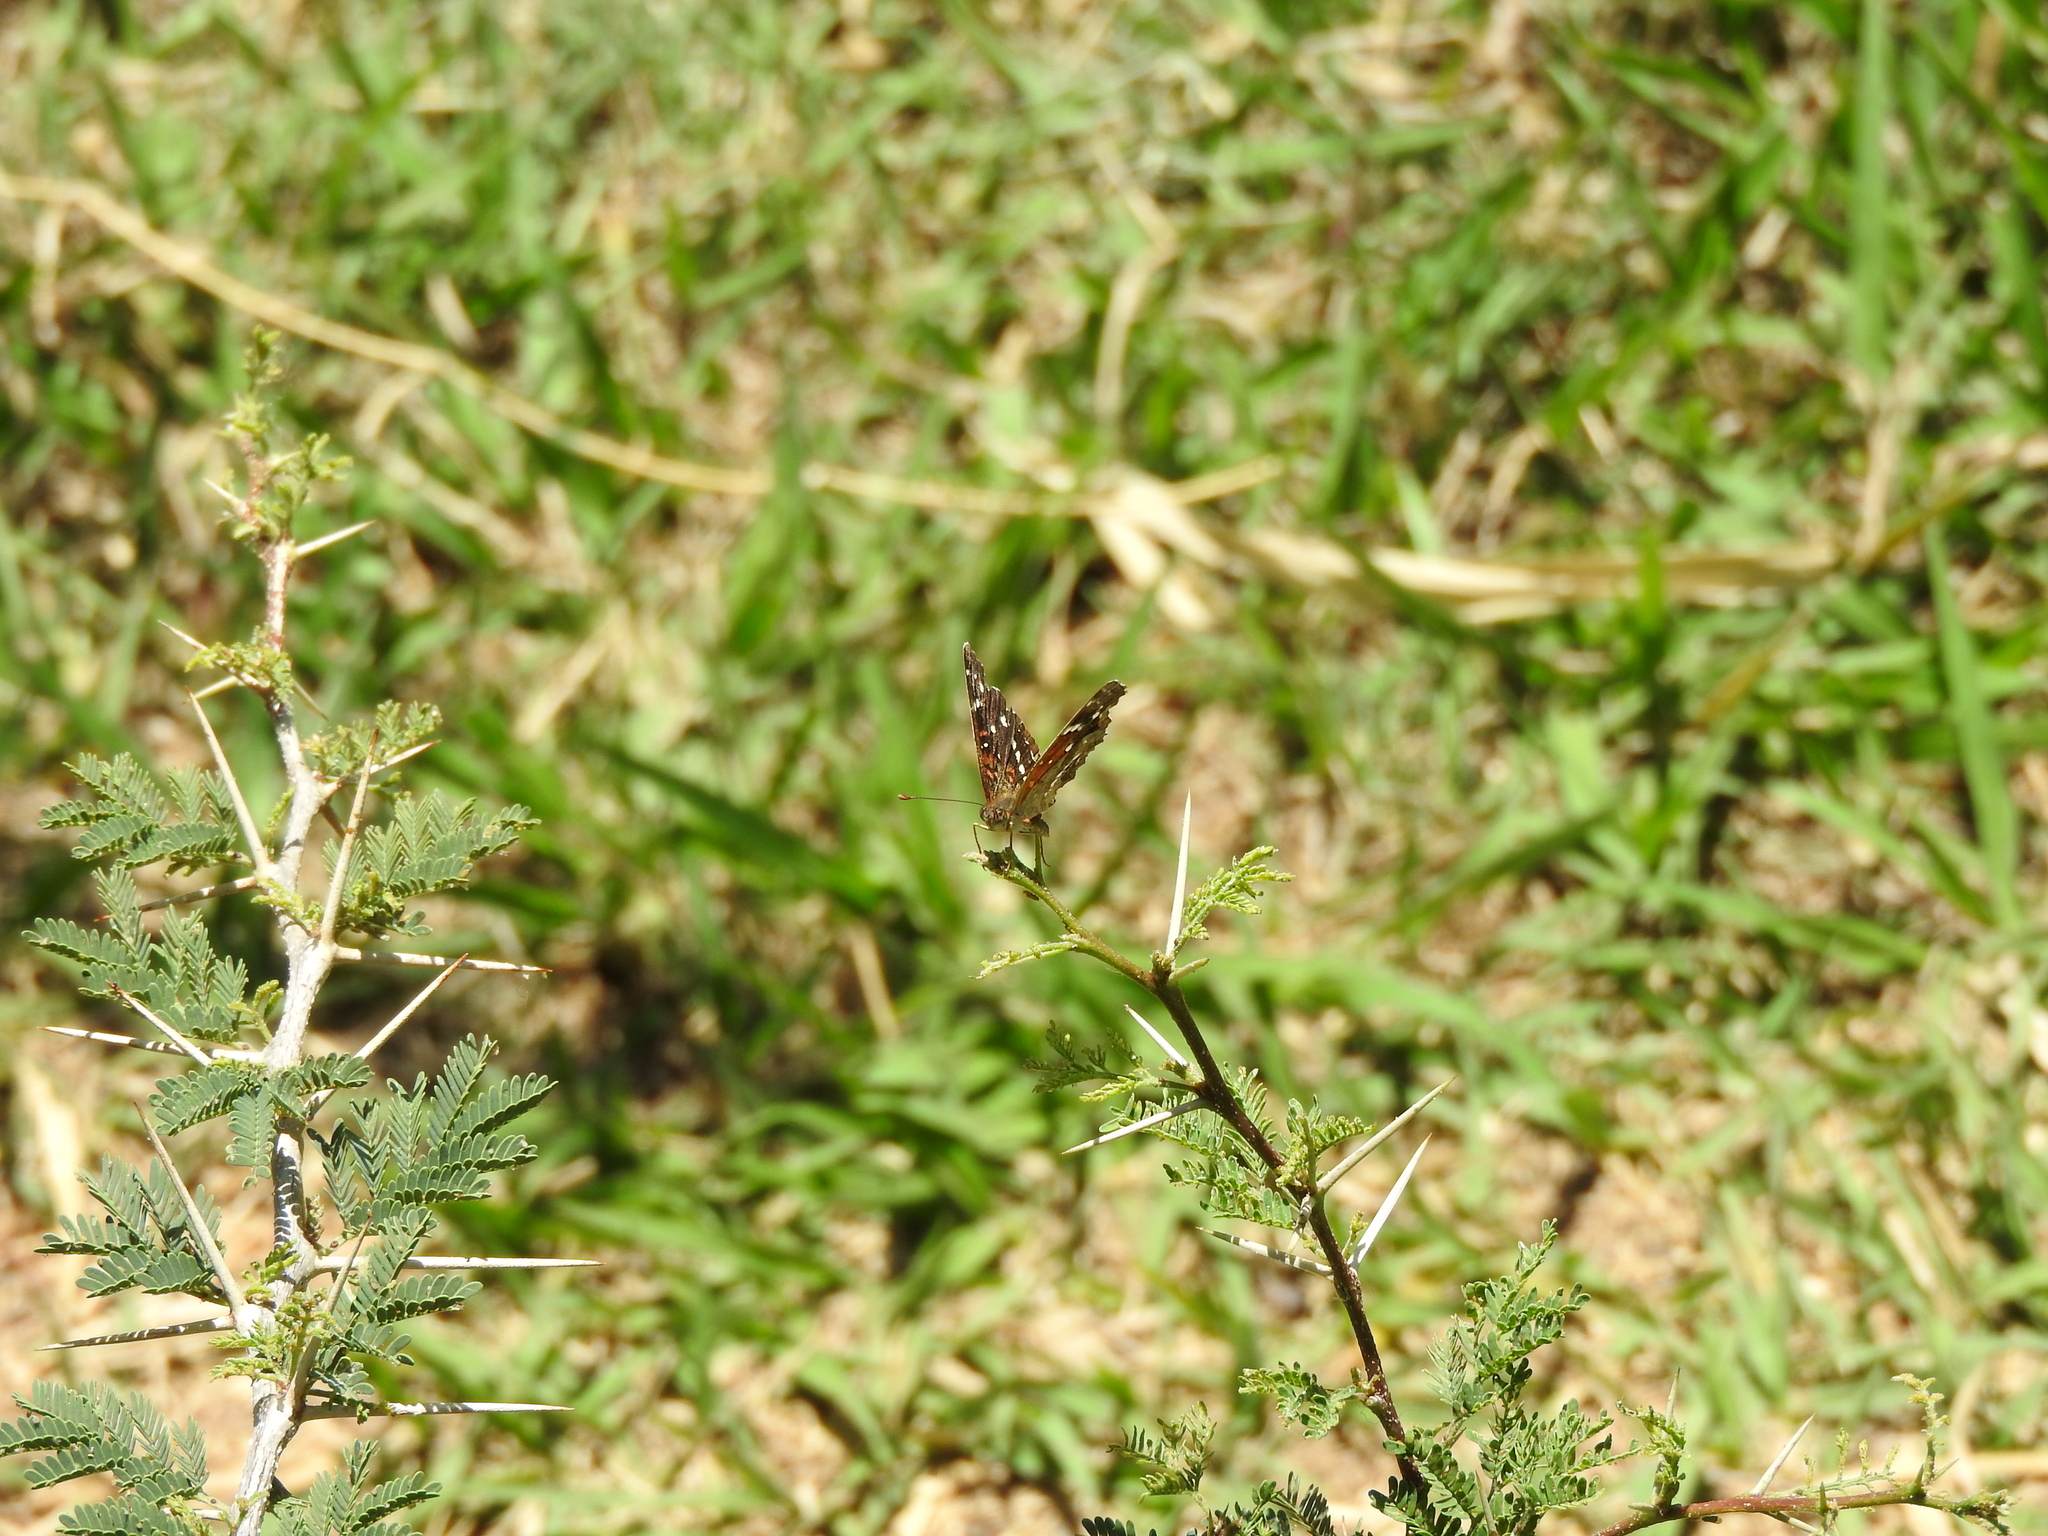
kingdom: Animalia
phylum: Arthropoda
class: Insecta
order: Lepidoptera
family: Nymphalidae
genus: Anthanassa
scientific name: Anthanassa texana
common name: Texan crescent
